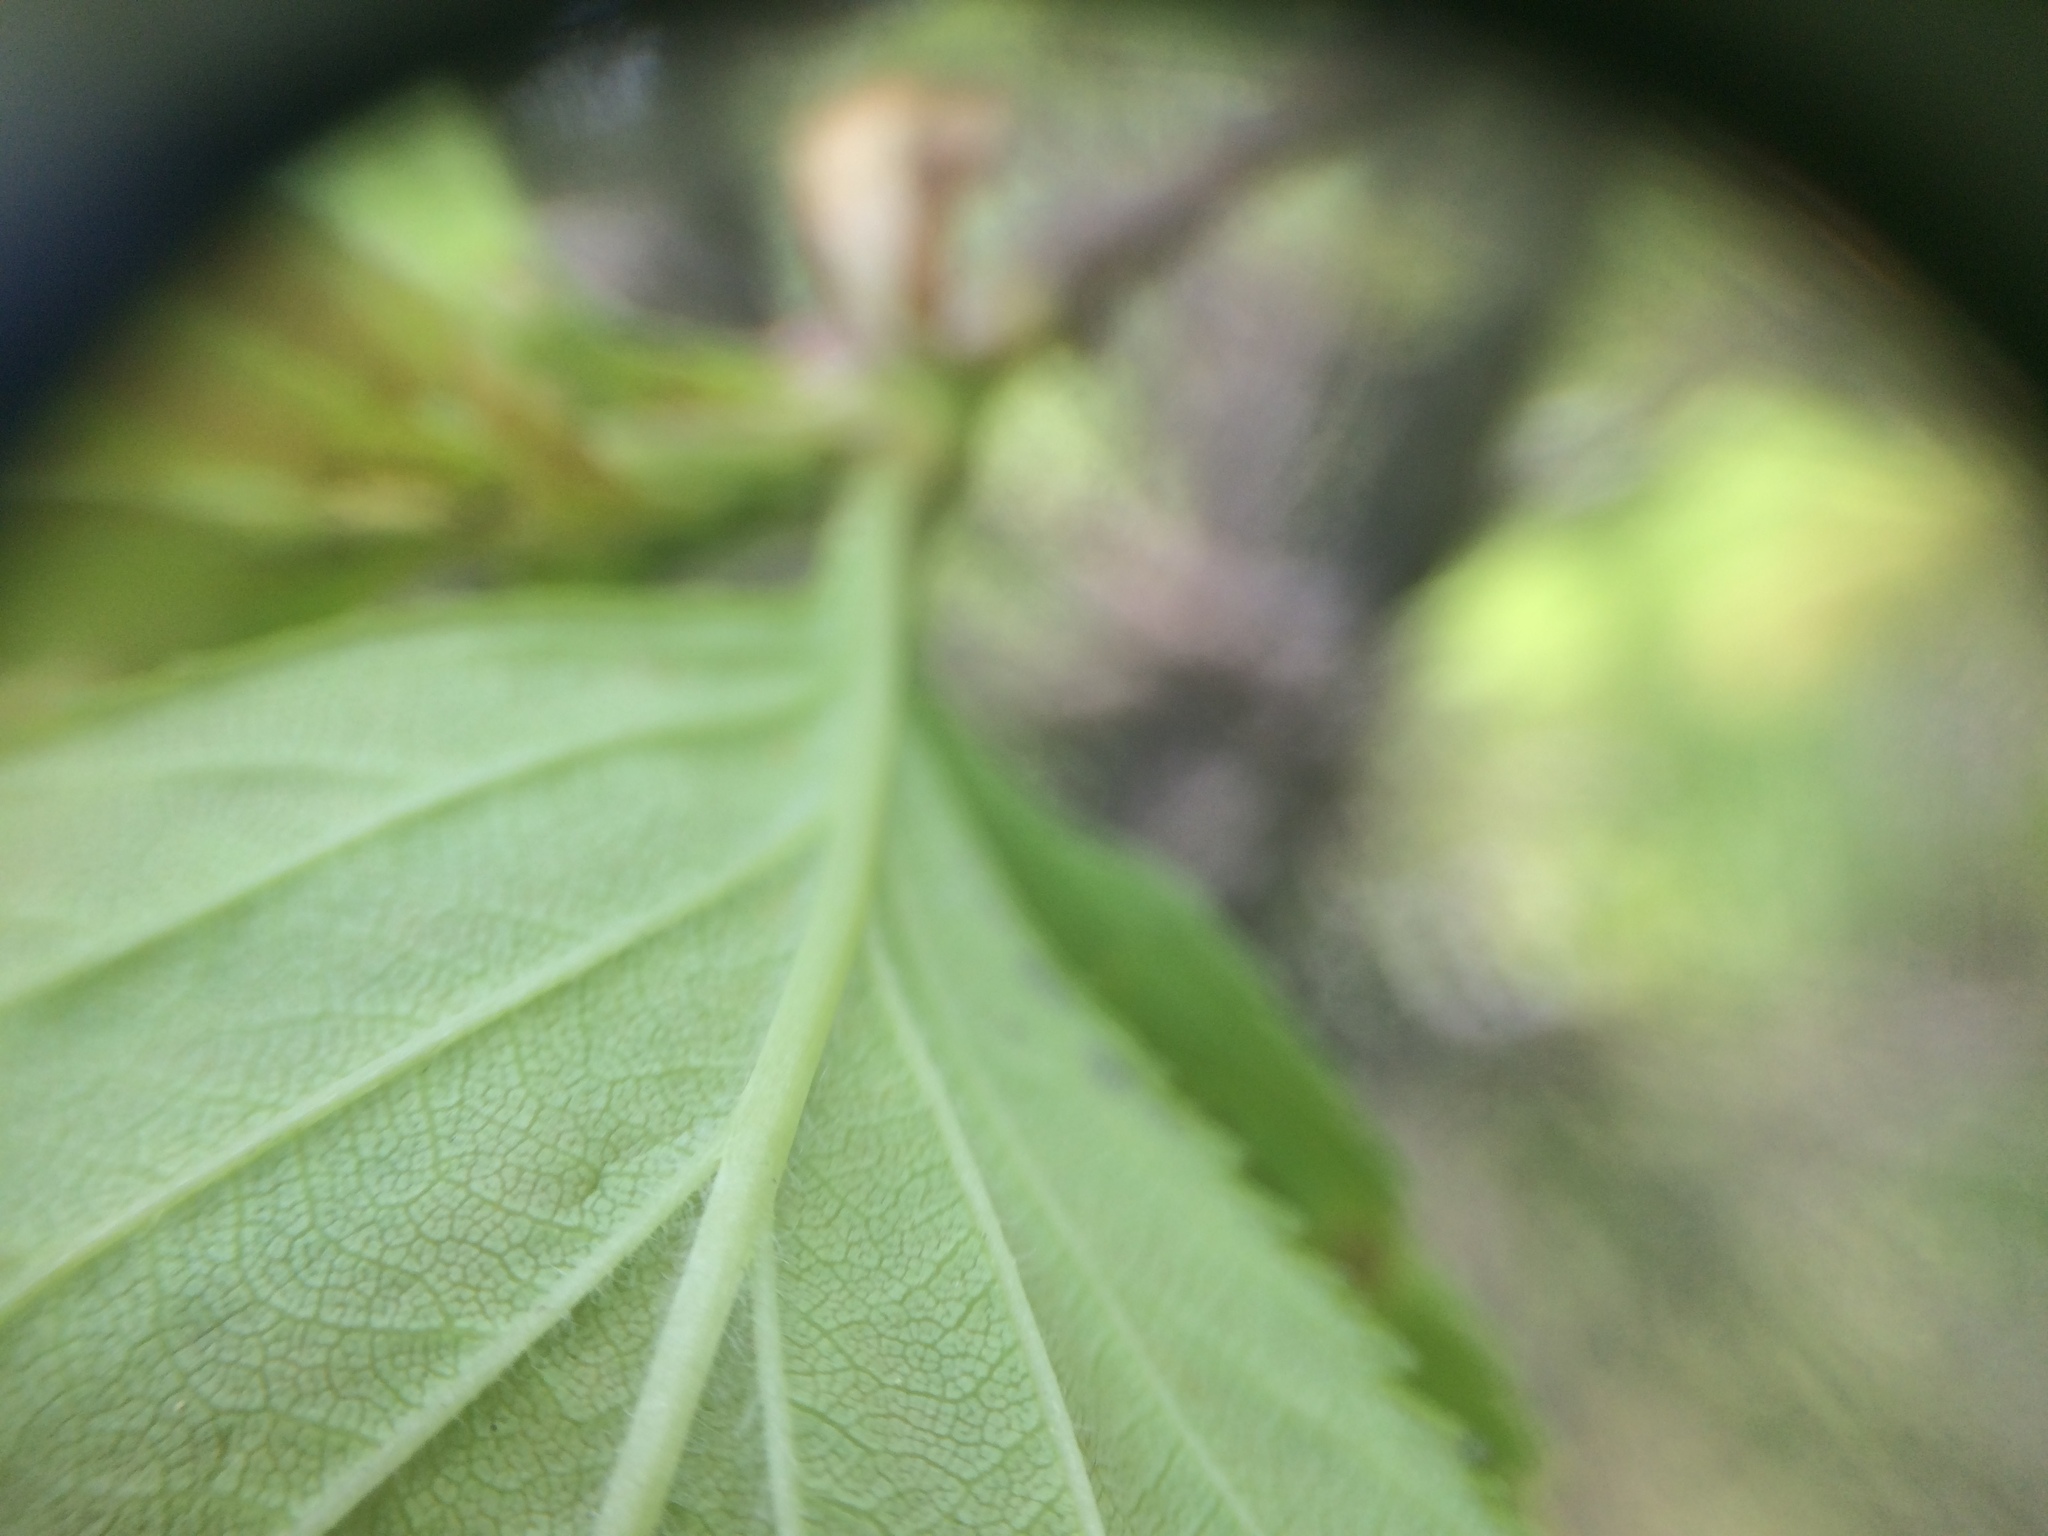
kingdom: Plantae
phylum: Tracheophyta
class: Magnoliopsida
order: Rosales
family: Rosaceae
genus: Crataegus
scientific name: Crataegus macracantha
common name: Large-thorn hawthorn
